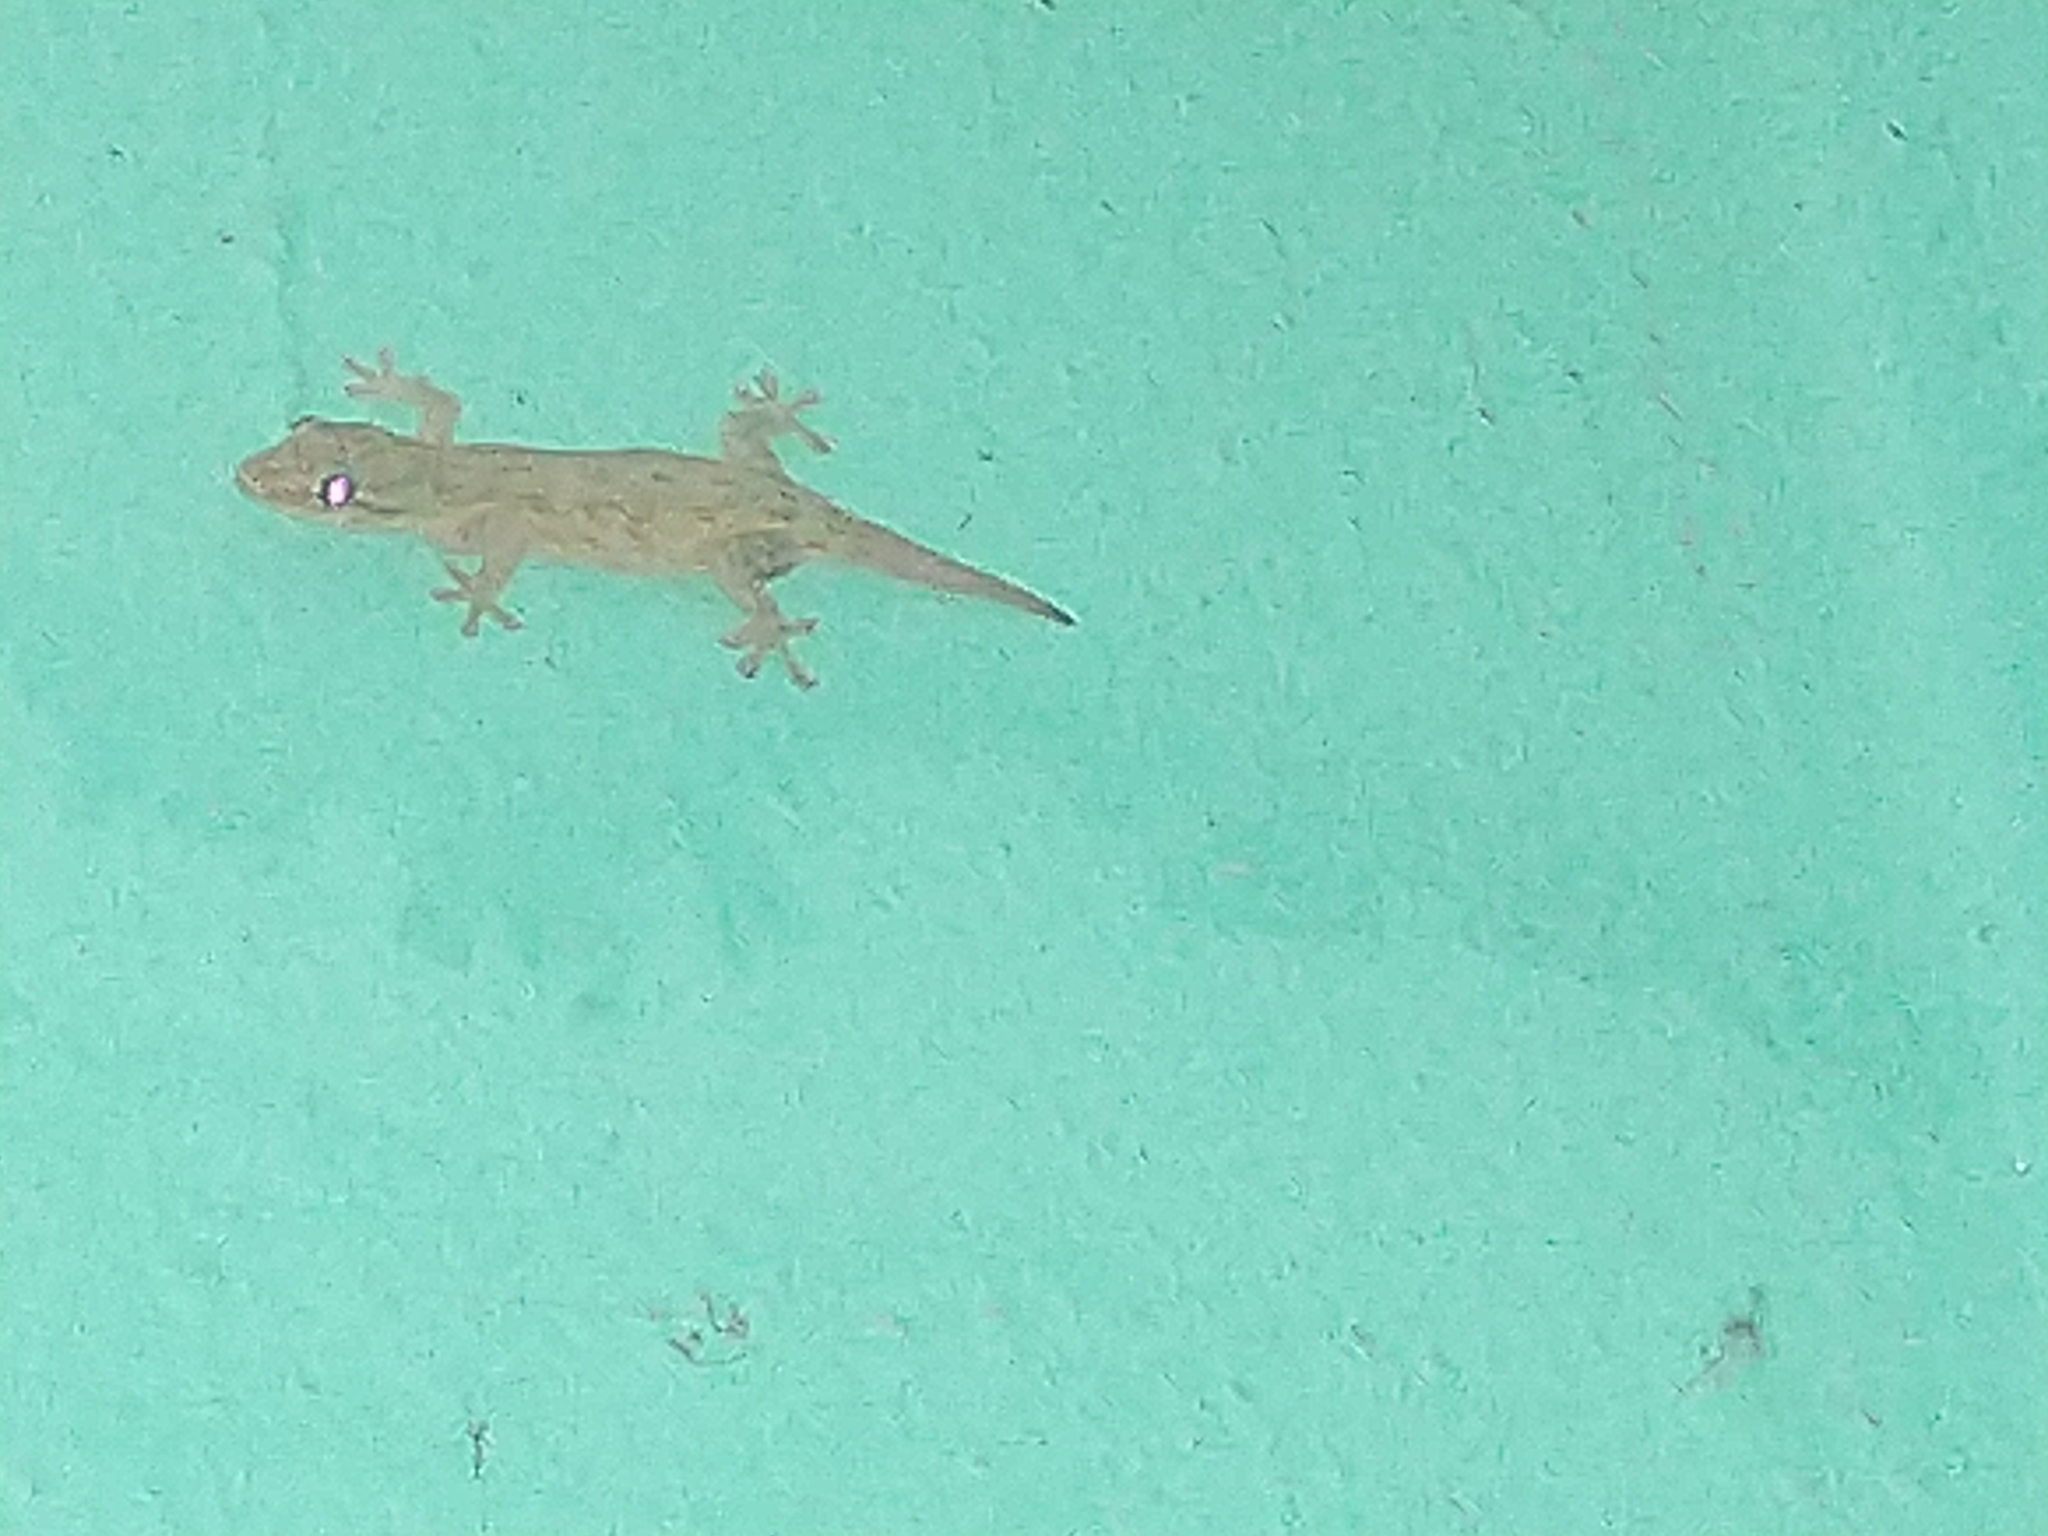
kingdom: Animalia
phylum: Chordata
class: Squamata
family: Gekkonidae
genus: Hemidactylus
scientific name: Hemidactylus frenatus
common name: Common house gecko
